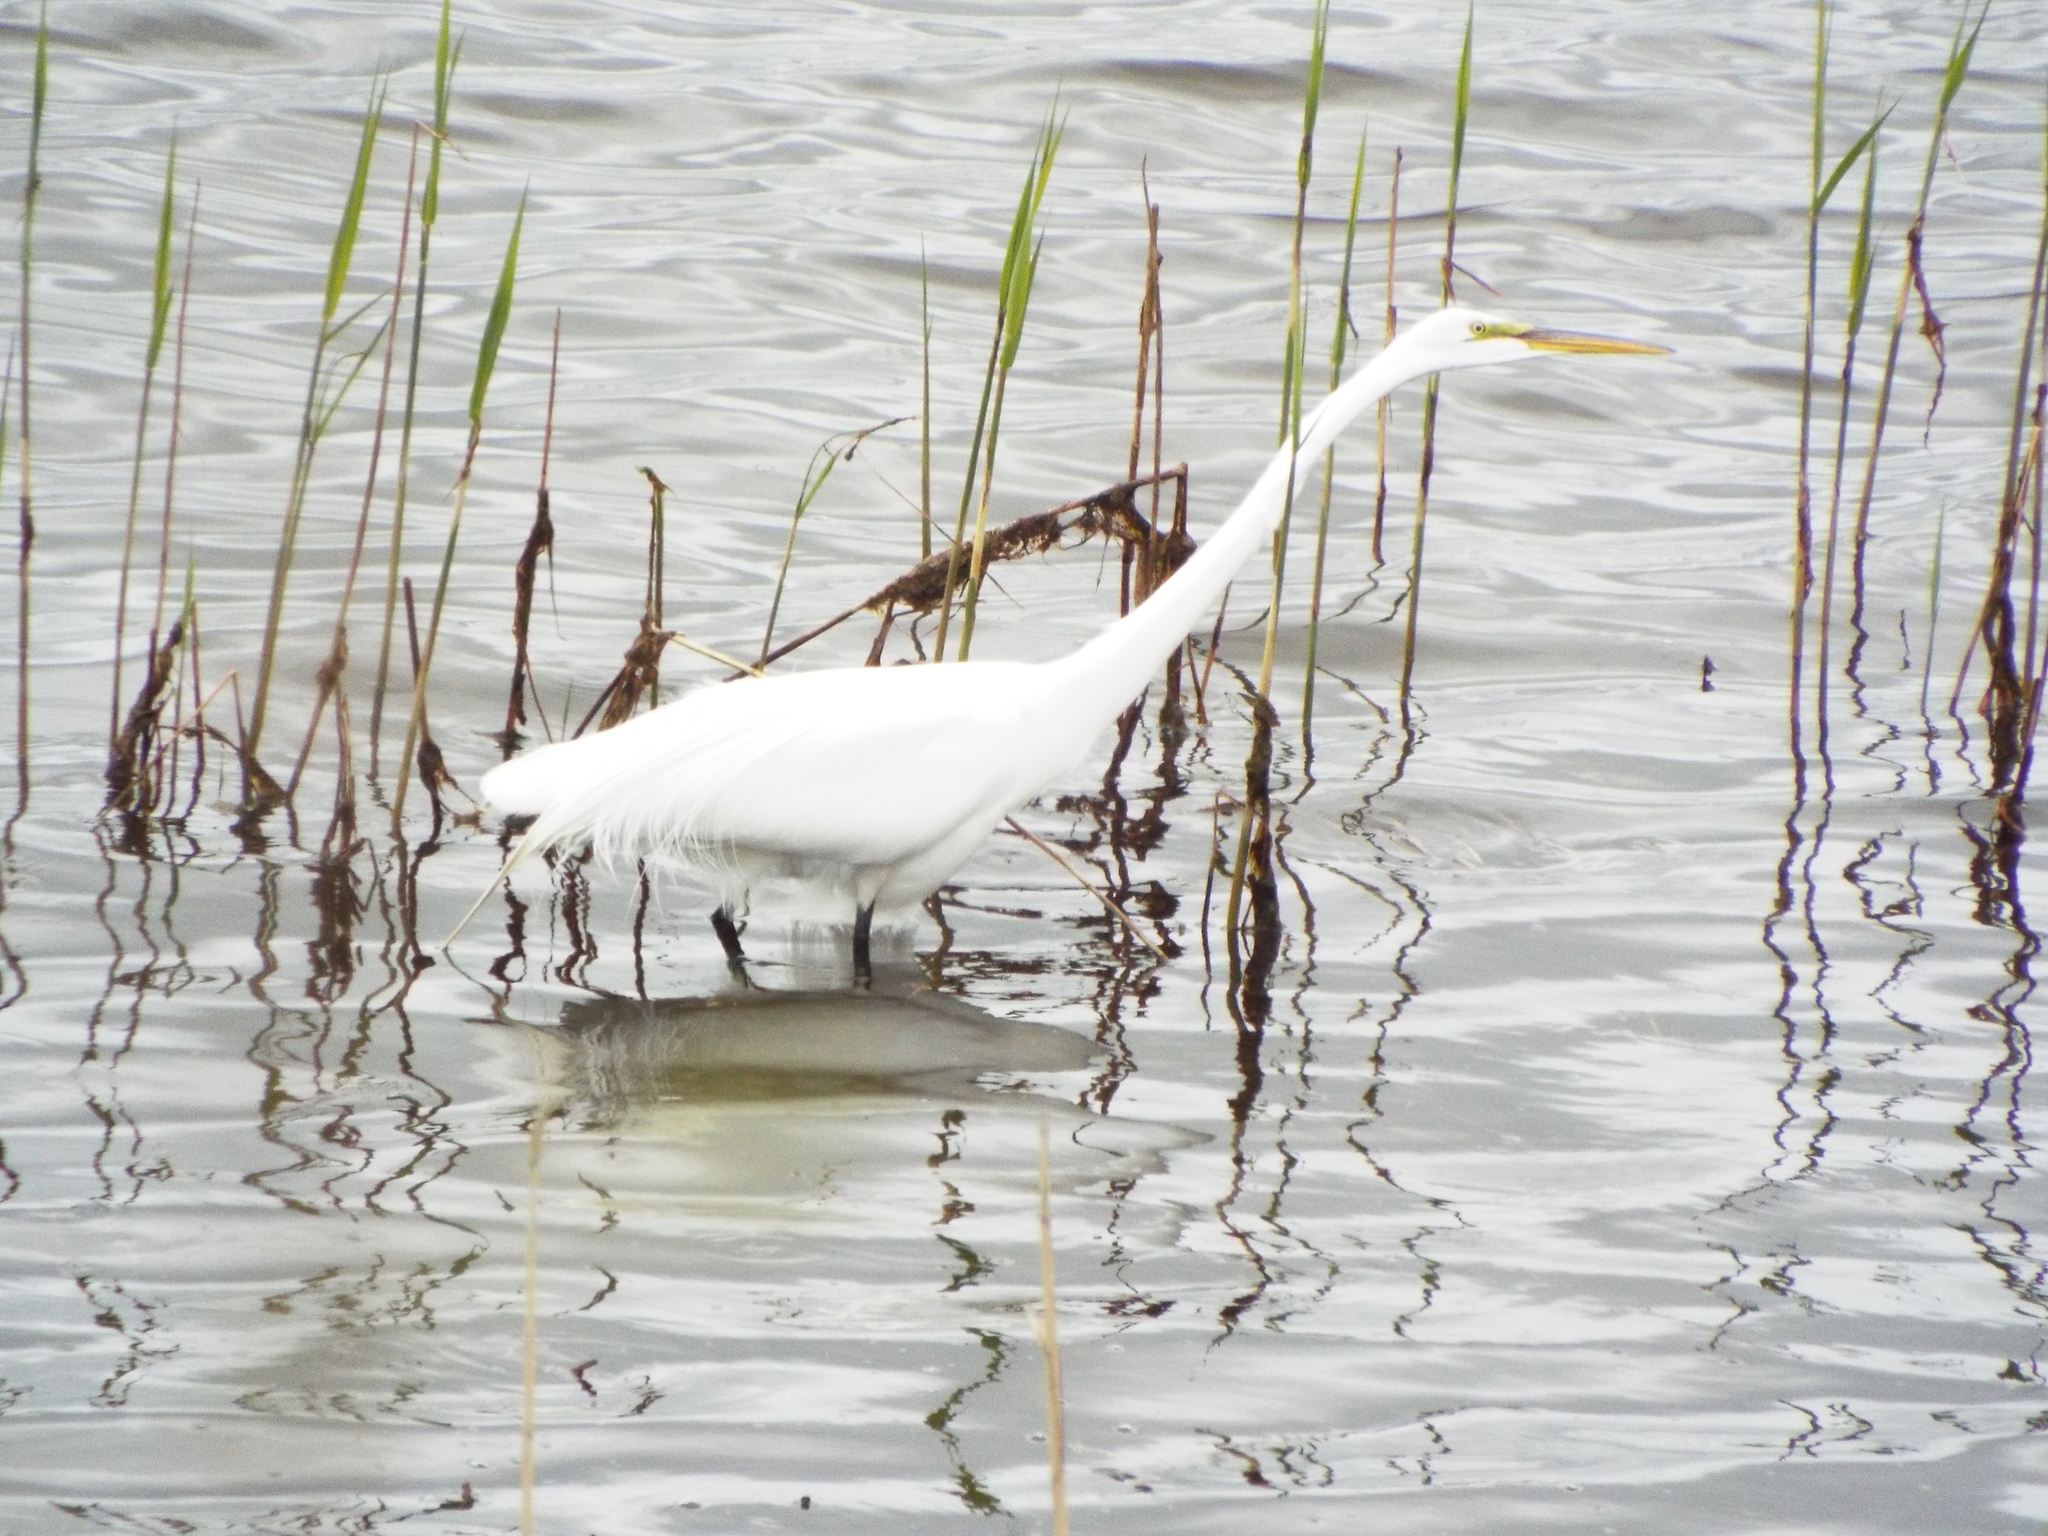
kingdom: Animalia
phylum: Chordata
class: Aves
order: Pelecaniformes
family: Ardeidae
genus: Ardea
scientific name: Ardea alba
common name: Great egret
